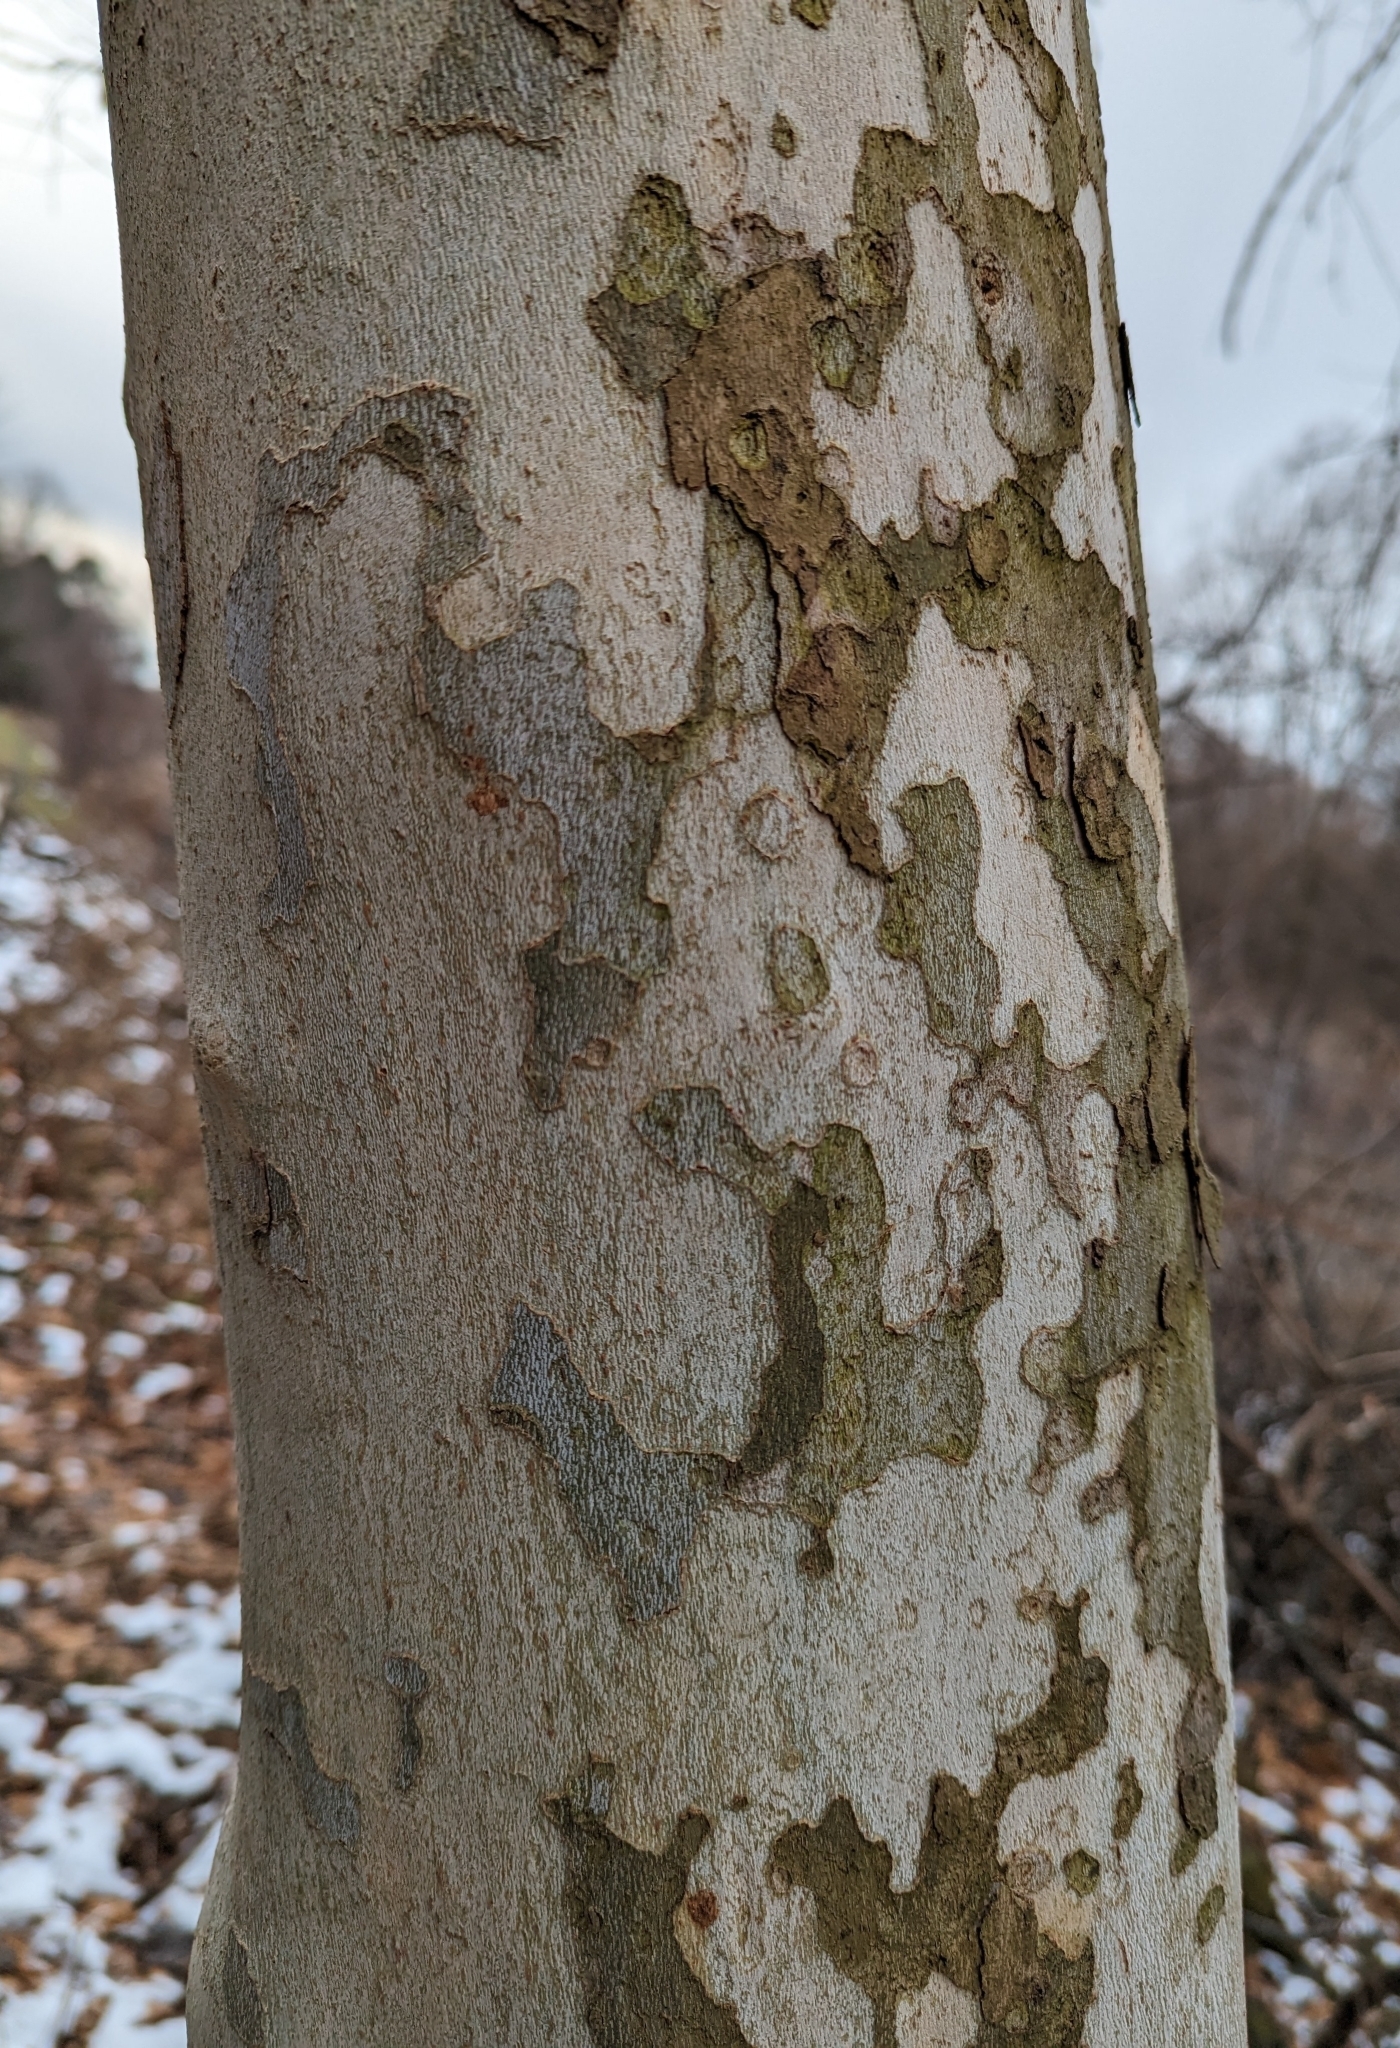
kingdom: Plantae
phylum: Tracheophyta
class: Magnoliopsida
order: Proteales
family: Platanaceae
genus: Platanus
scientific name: Platanus occidentalis
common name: American sycamore
